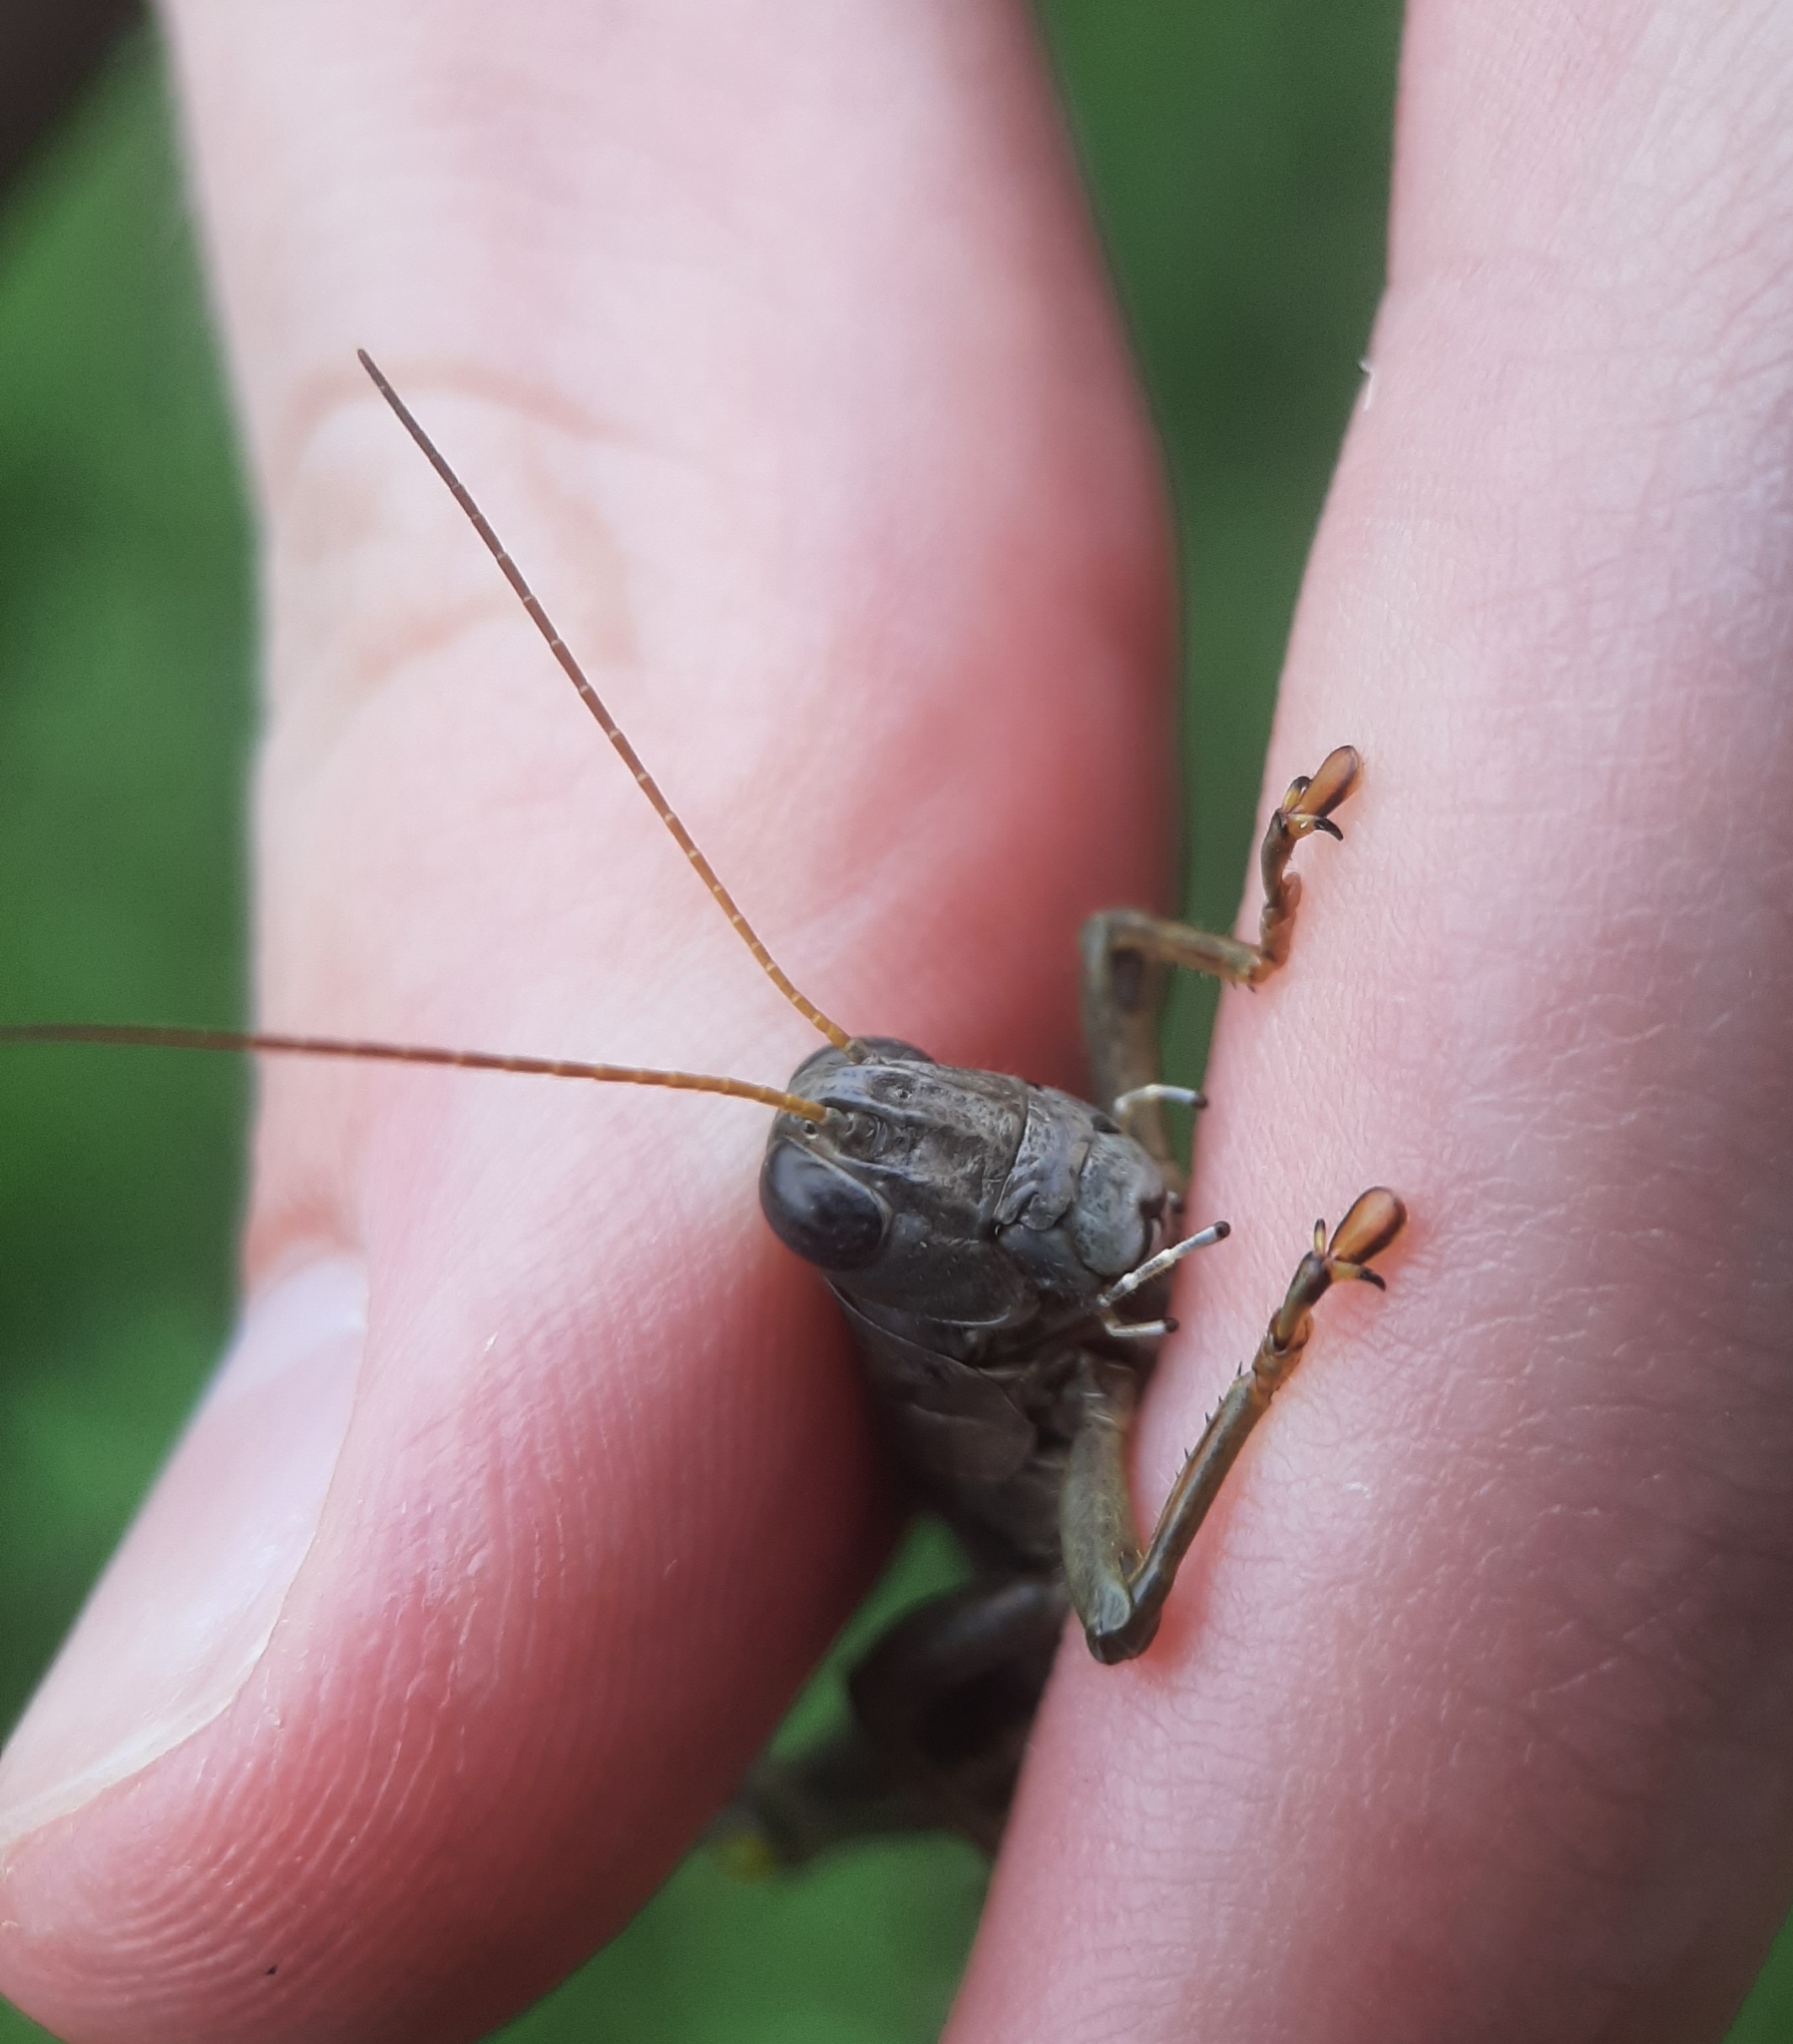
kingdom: Animalia
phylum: Arthropoda
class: Insecta
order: Orthoptera
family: Acrididae
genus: Melanoplus
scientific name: Melanoplus differentialis
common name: Differential grasshopper
